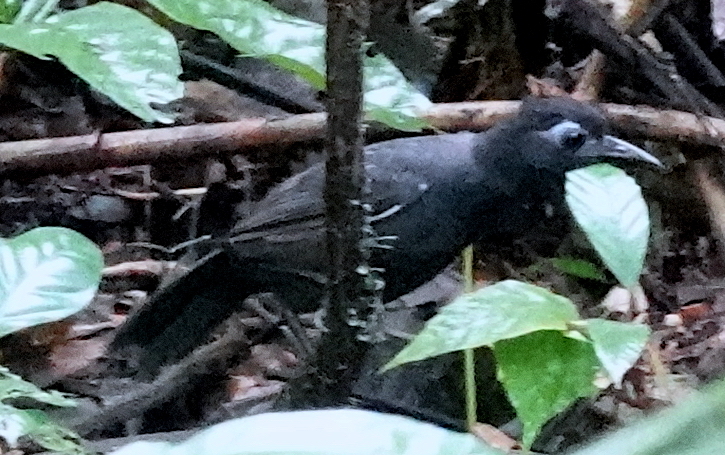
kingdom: Animalia
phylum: Chordata
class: Aves
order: Passeriformes
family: Thamnophilidae
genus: Myrmeciza
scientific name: Myrmeciza fortis
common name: Sooty antbird
